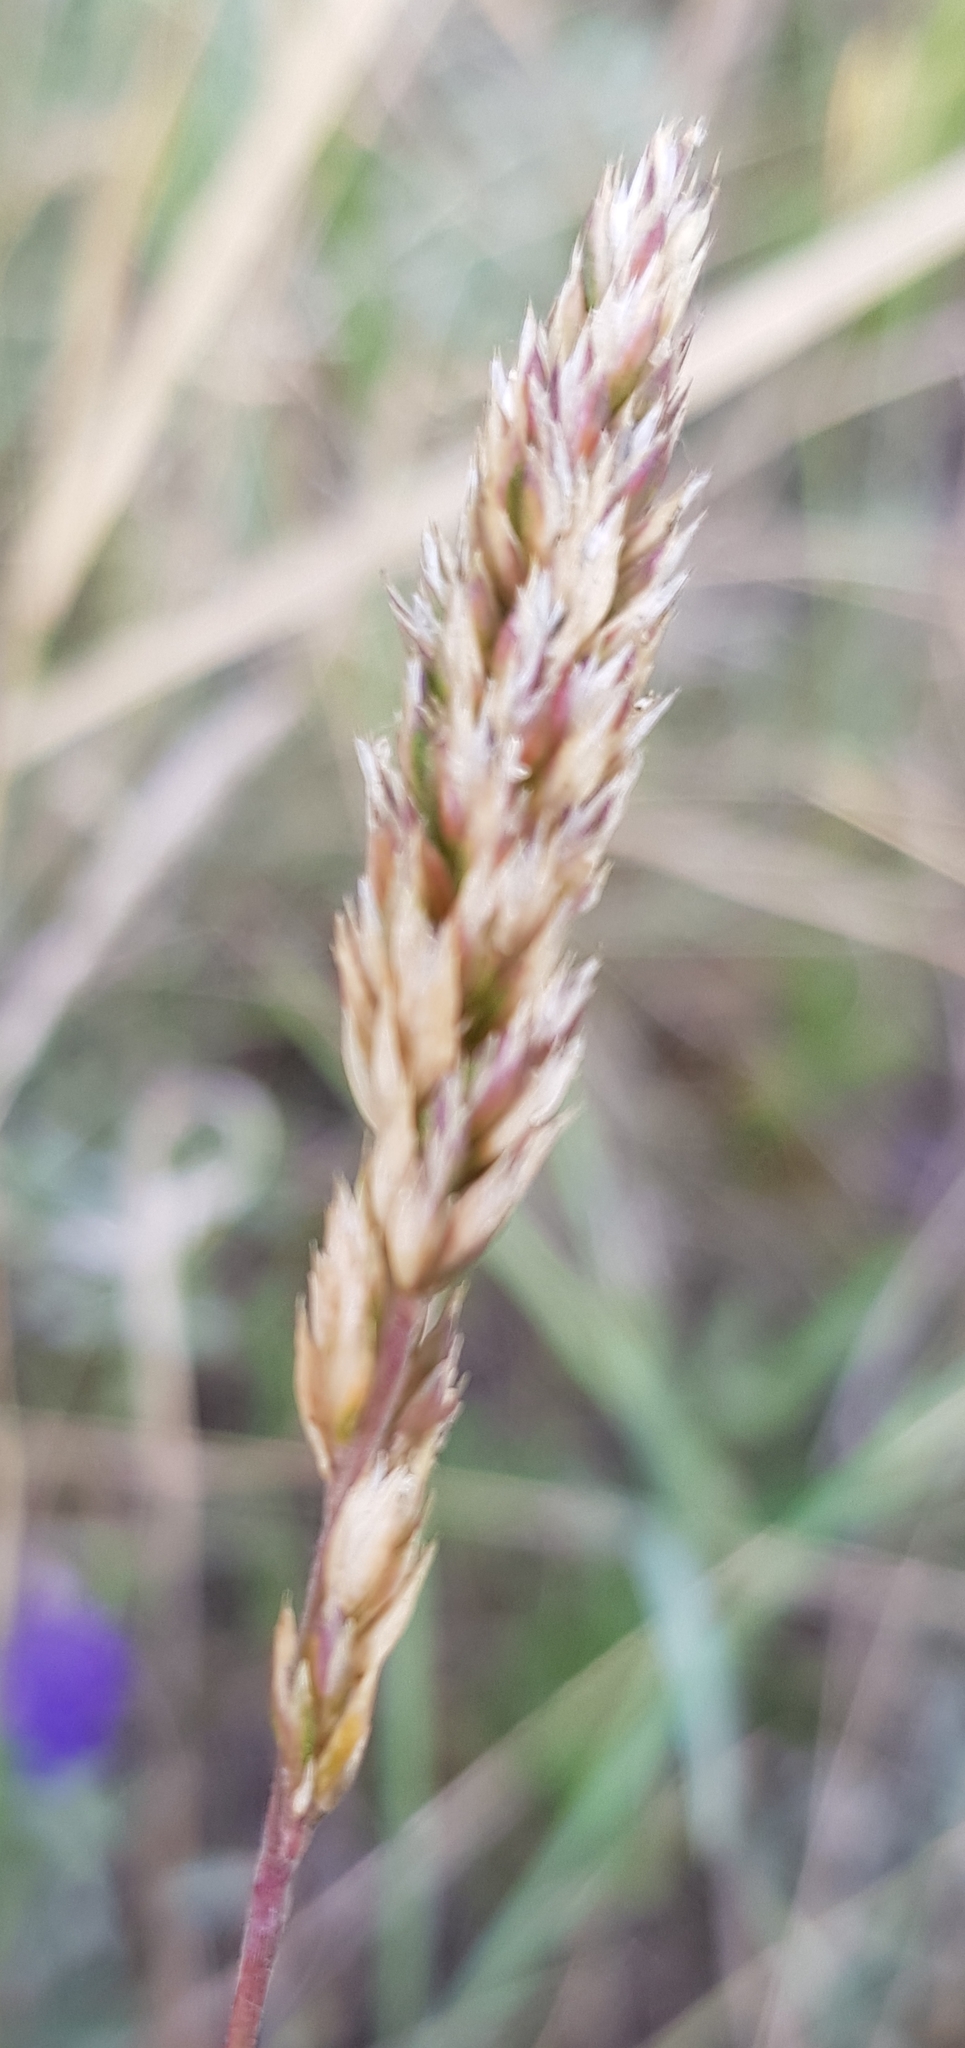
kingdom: Plantae
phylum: Tracheophyta
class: Liliopsida
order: Poales
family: Poaceae
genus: Koeleria
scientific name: Koeleria macrantha
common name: Crested hair-grass
